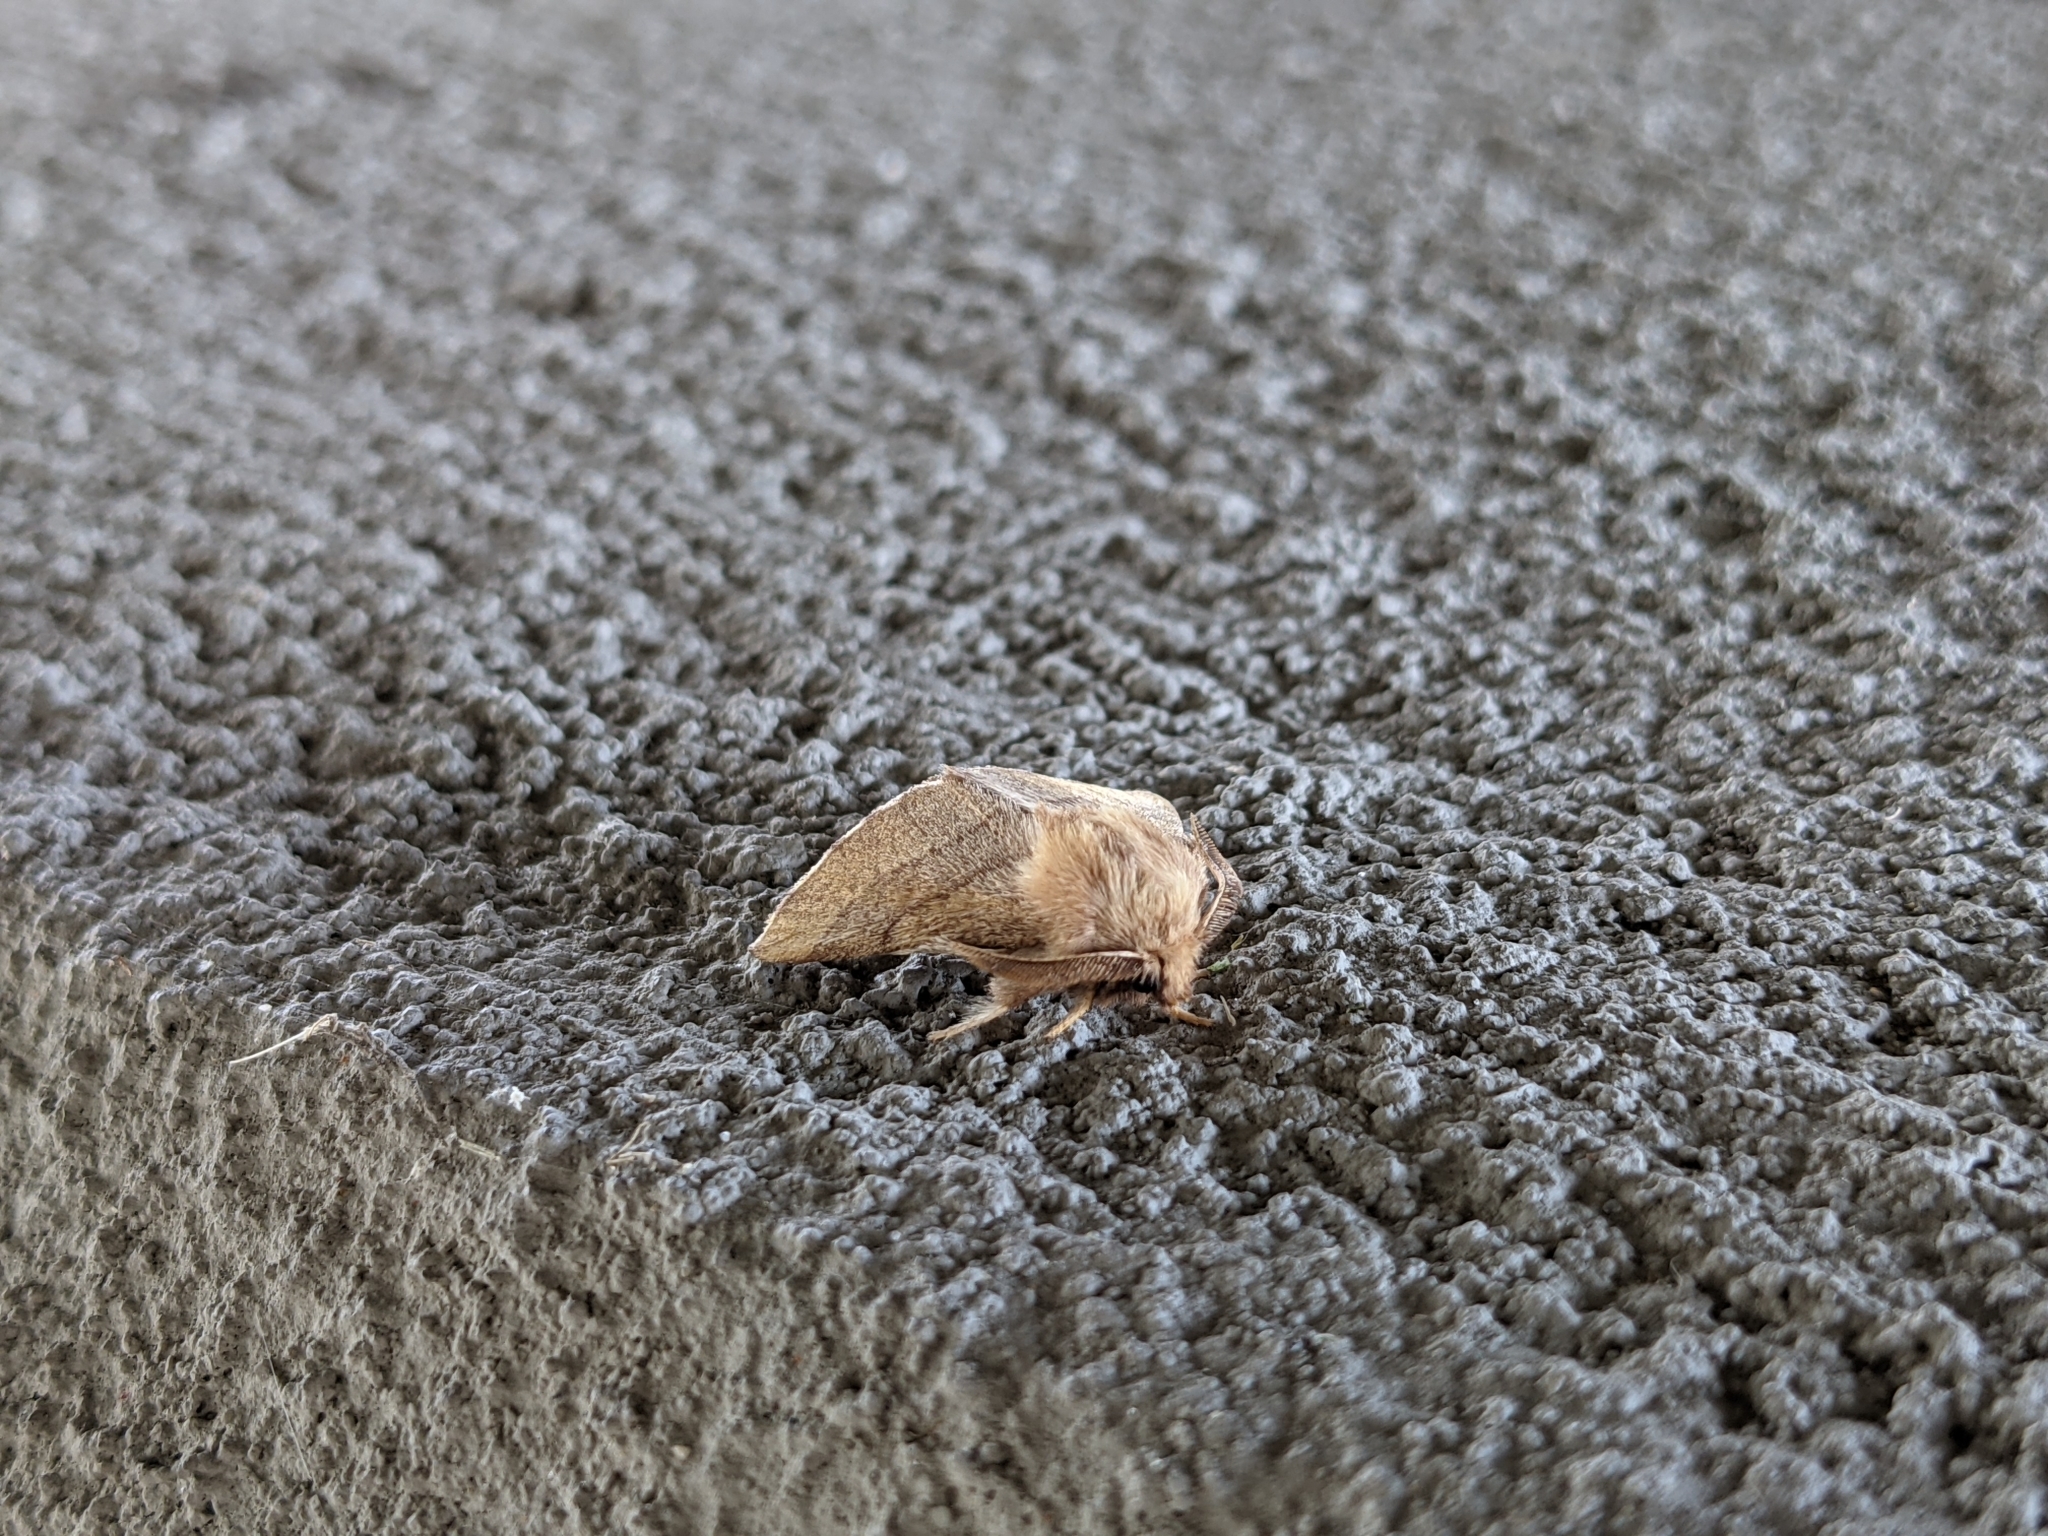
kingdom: Animalia
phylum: Arthropoda
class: Insecta
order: Lepidoptera
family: Lasiocampidae
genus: Malacosoma
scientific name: Malacosoma disstria
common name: Forest tent caterpillar
